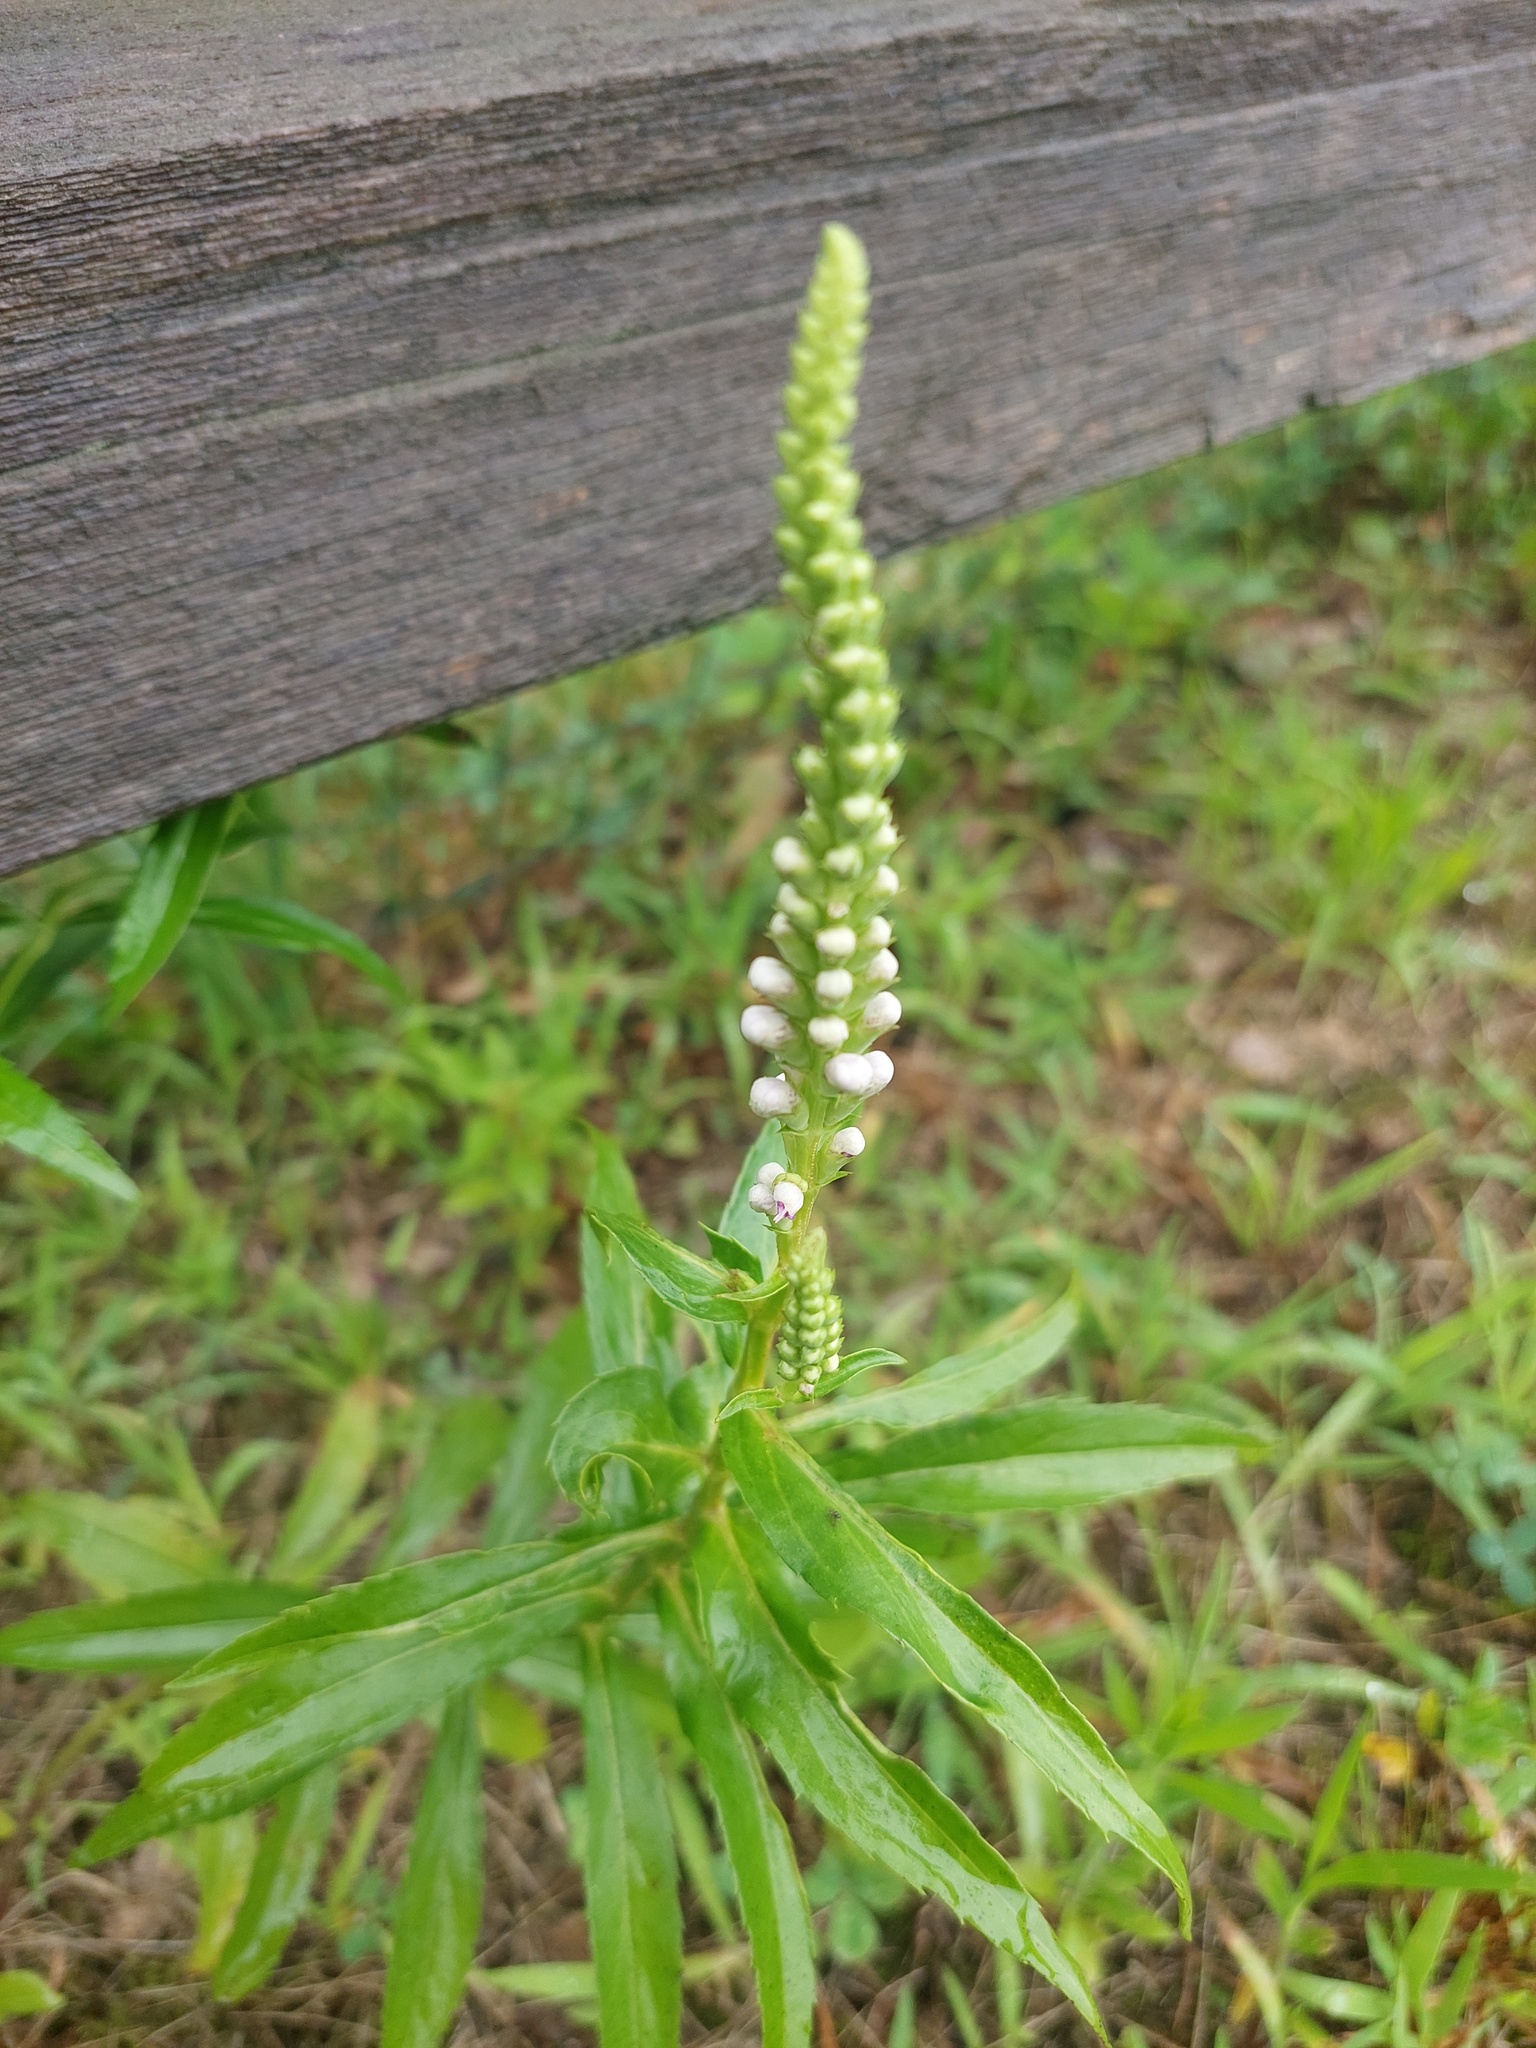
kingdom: Plantae
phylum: Tracheophyta
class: Magnoliopsida
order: Lamiales
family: Lamiaceae
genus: Physostegia
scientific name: Physostegia virginiana
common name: Obedient-plant
